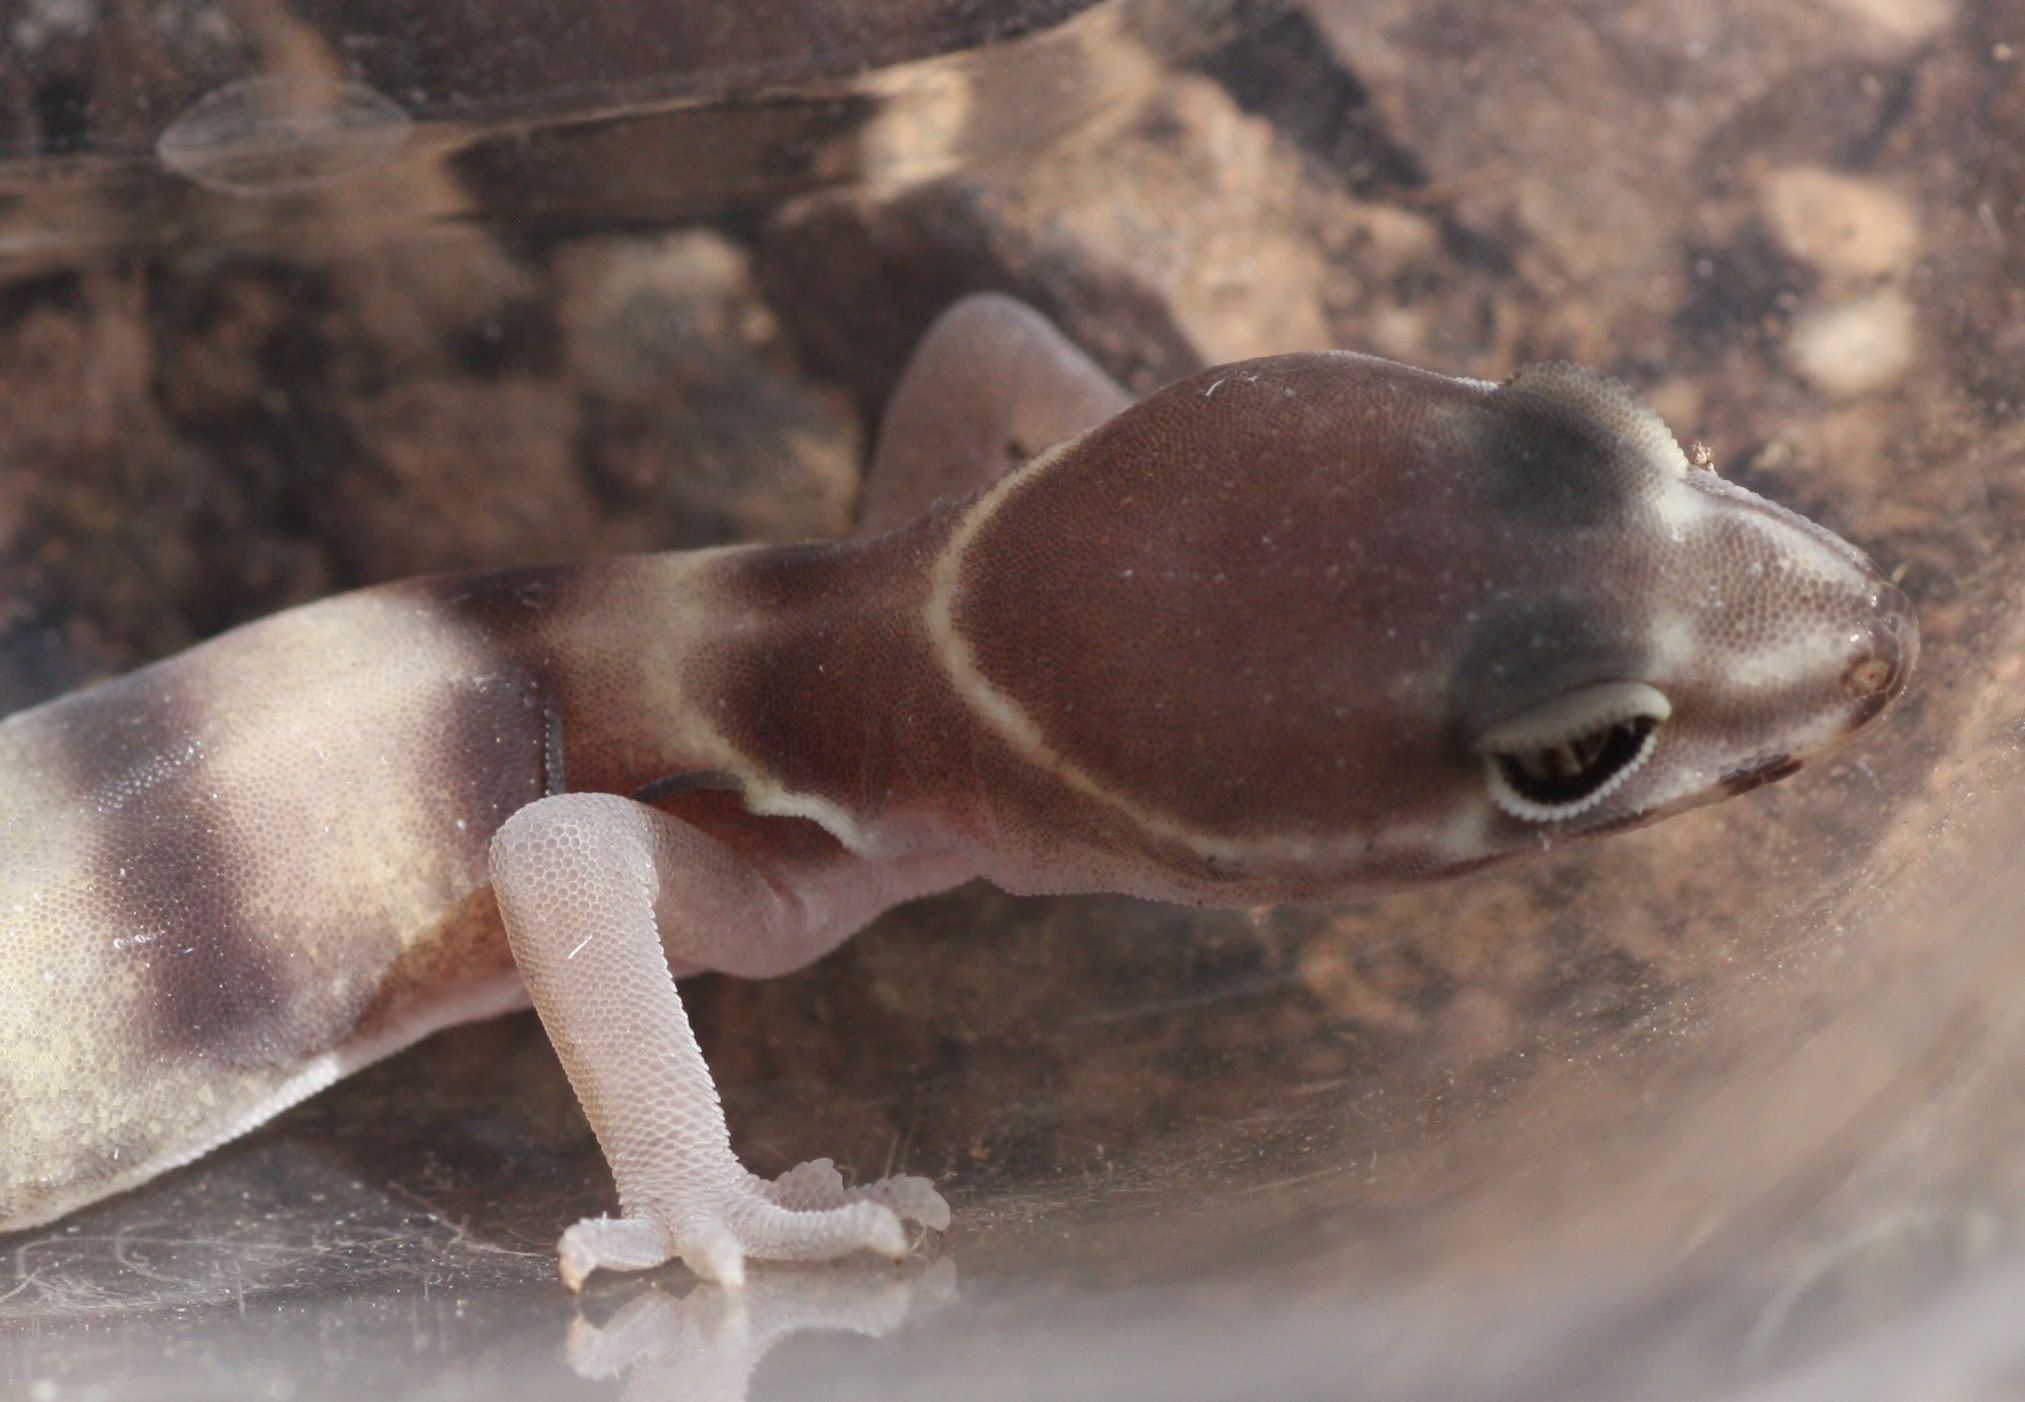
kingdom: Animalia
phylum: Chordata
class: Squamata
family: Eublepharidae
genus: Coleonyx
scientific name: Coleonyx variegatus
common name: Western banded gecko
